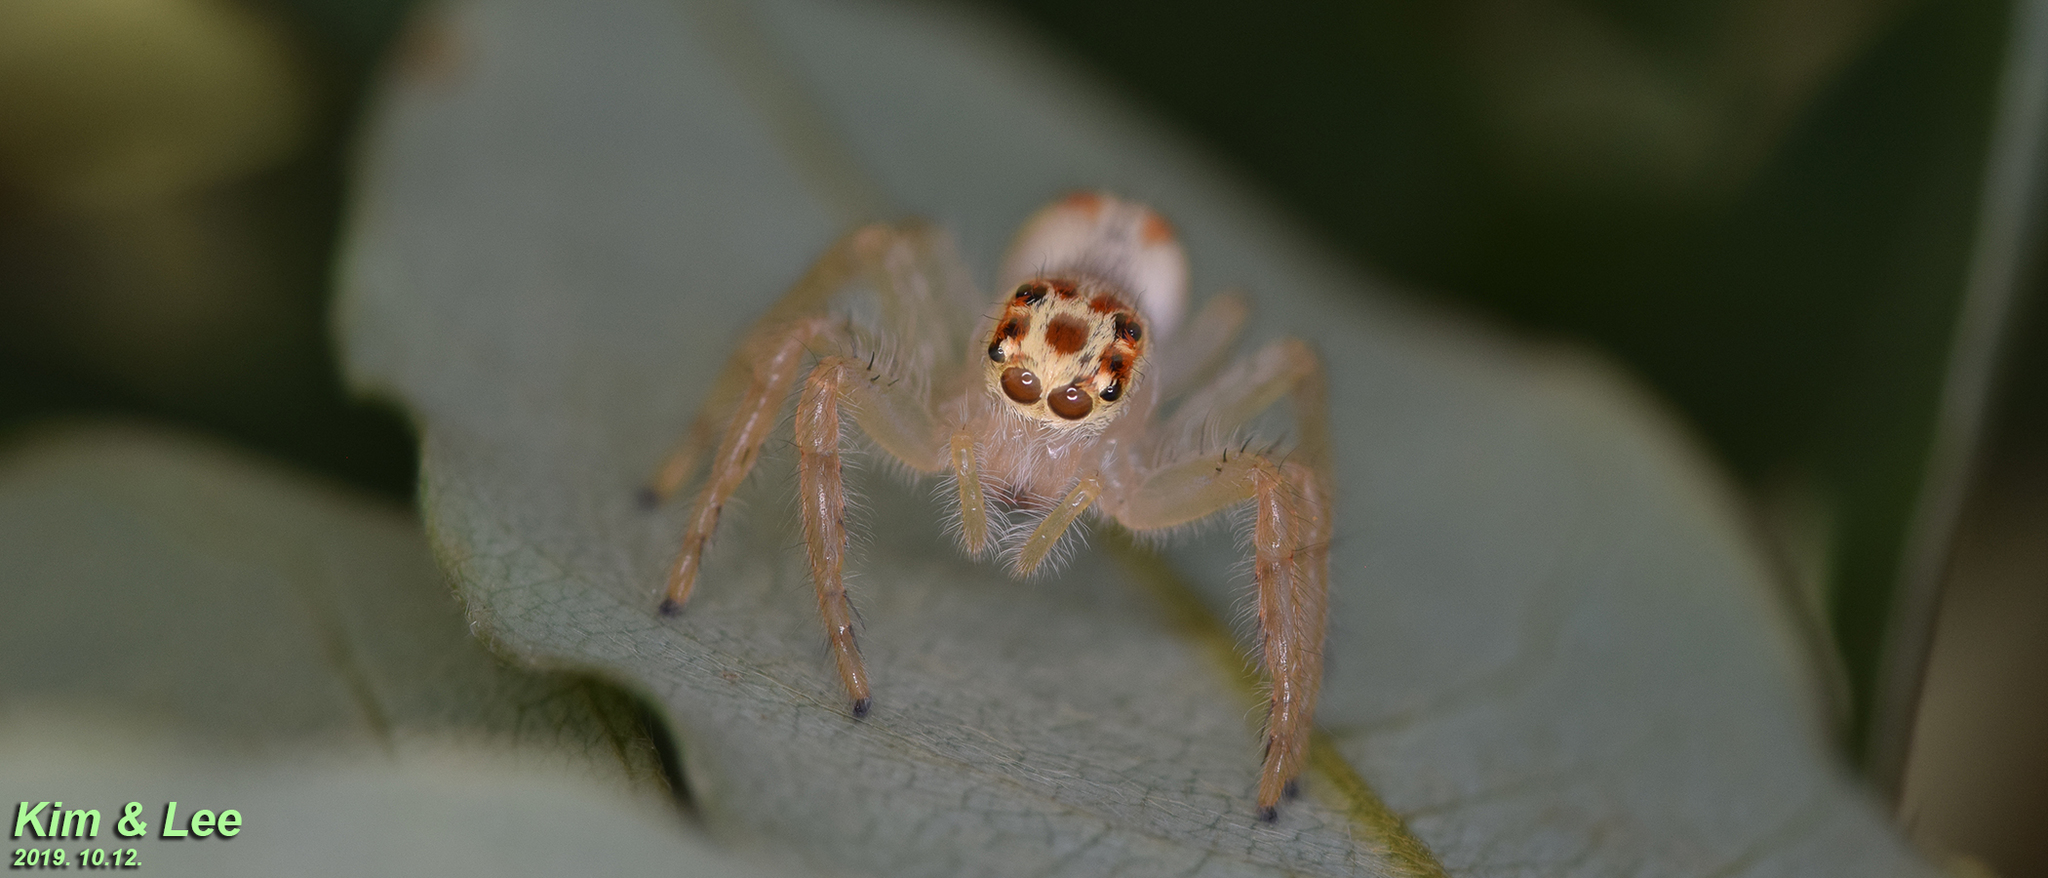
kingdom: Animalia
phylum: Arthropoda
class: Arachnida
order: Araneae
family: Salticidae
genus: Telamonia
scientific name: Telamonia vlijmi
